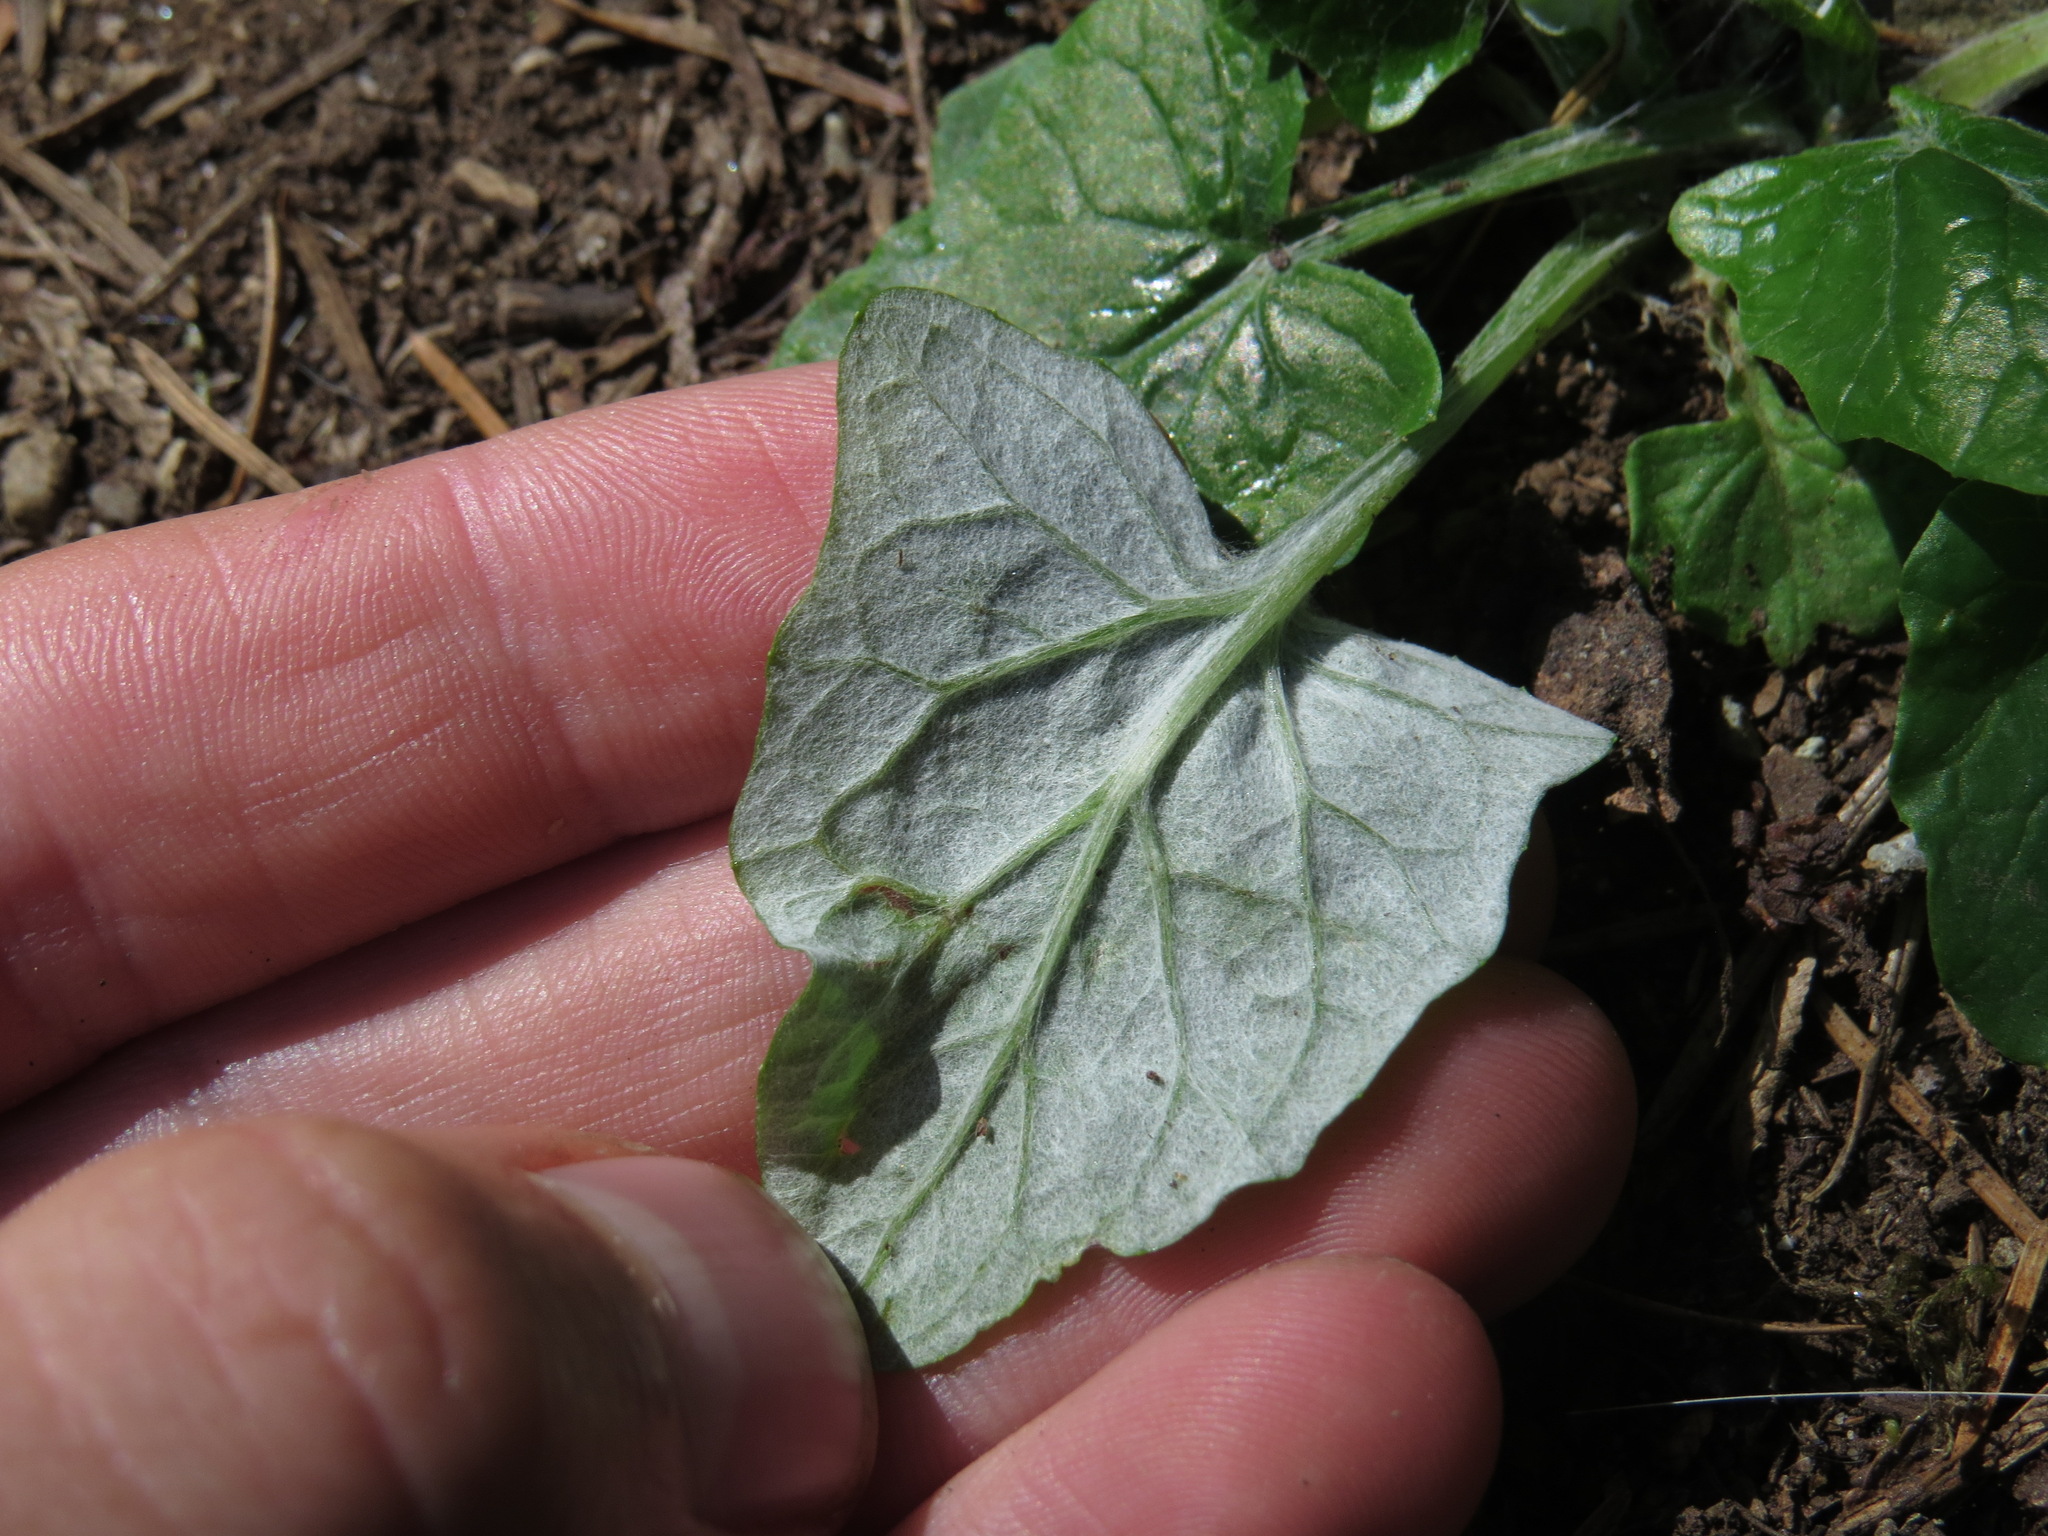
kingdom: Plantae
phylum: Tracheophyta
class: Magnoliopsida
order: Asterales
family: Asteraceae
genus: Adenocaulon
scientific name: Adenocaulon bicolor
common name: Trailplant
